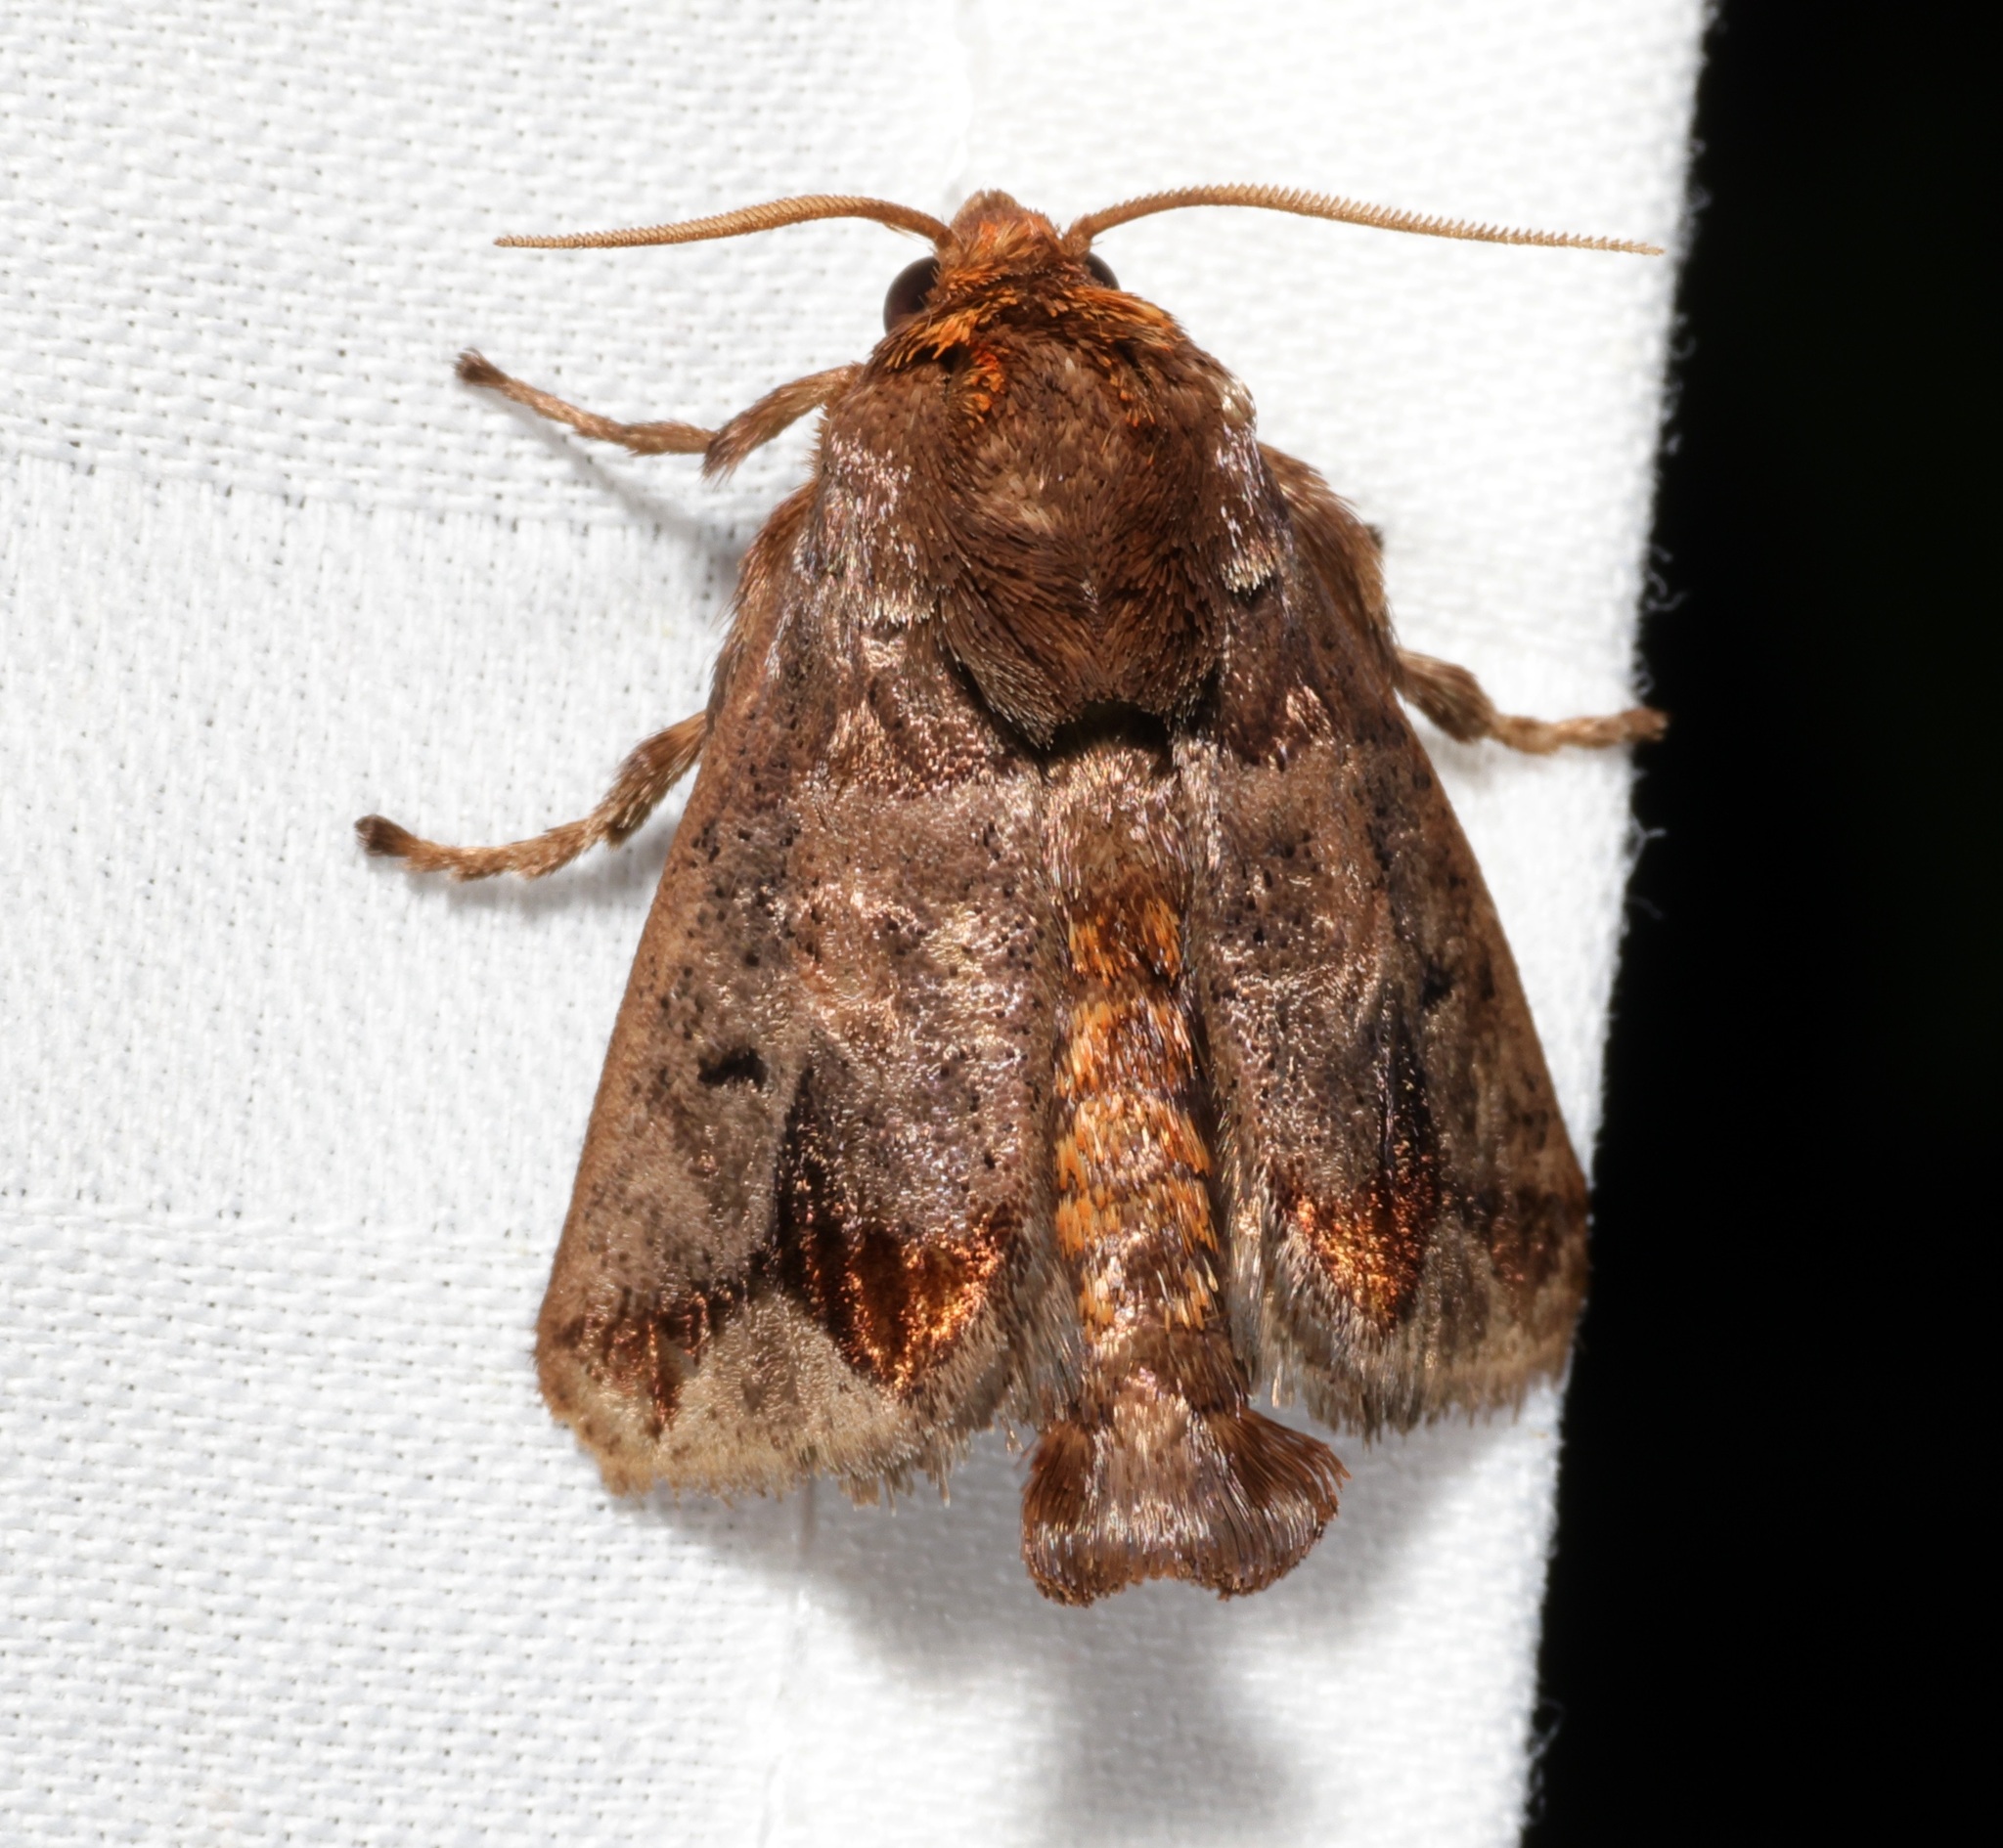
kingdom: Animalia
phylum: Arthropoda
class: Insecta
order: Lepidoptera
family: Limacodidae
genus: Phlossa
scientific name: Phlossa conjuncta
